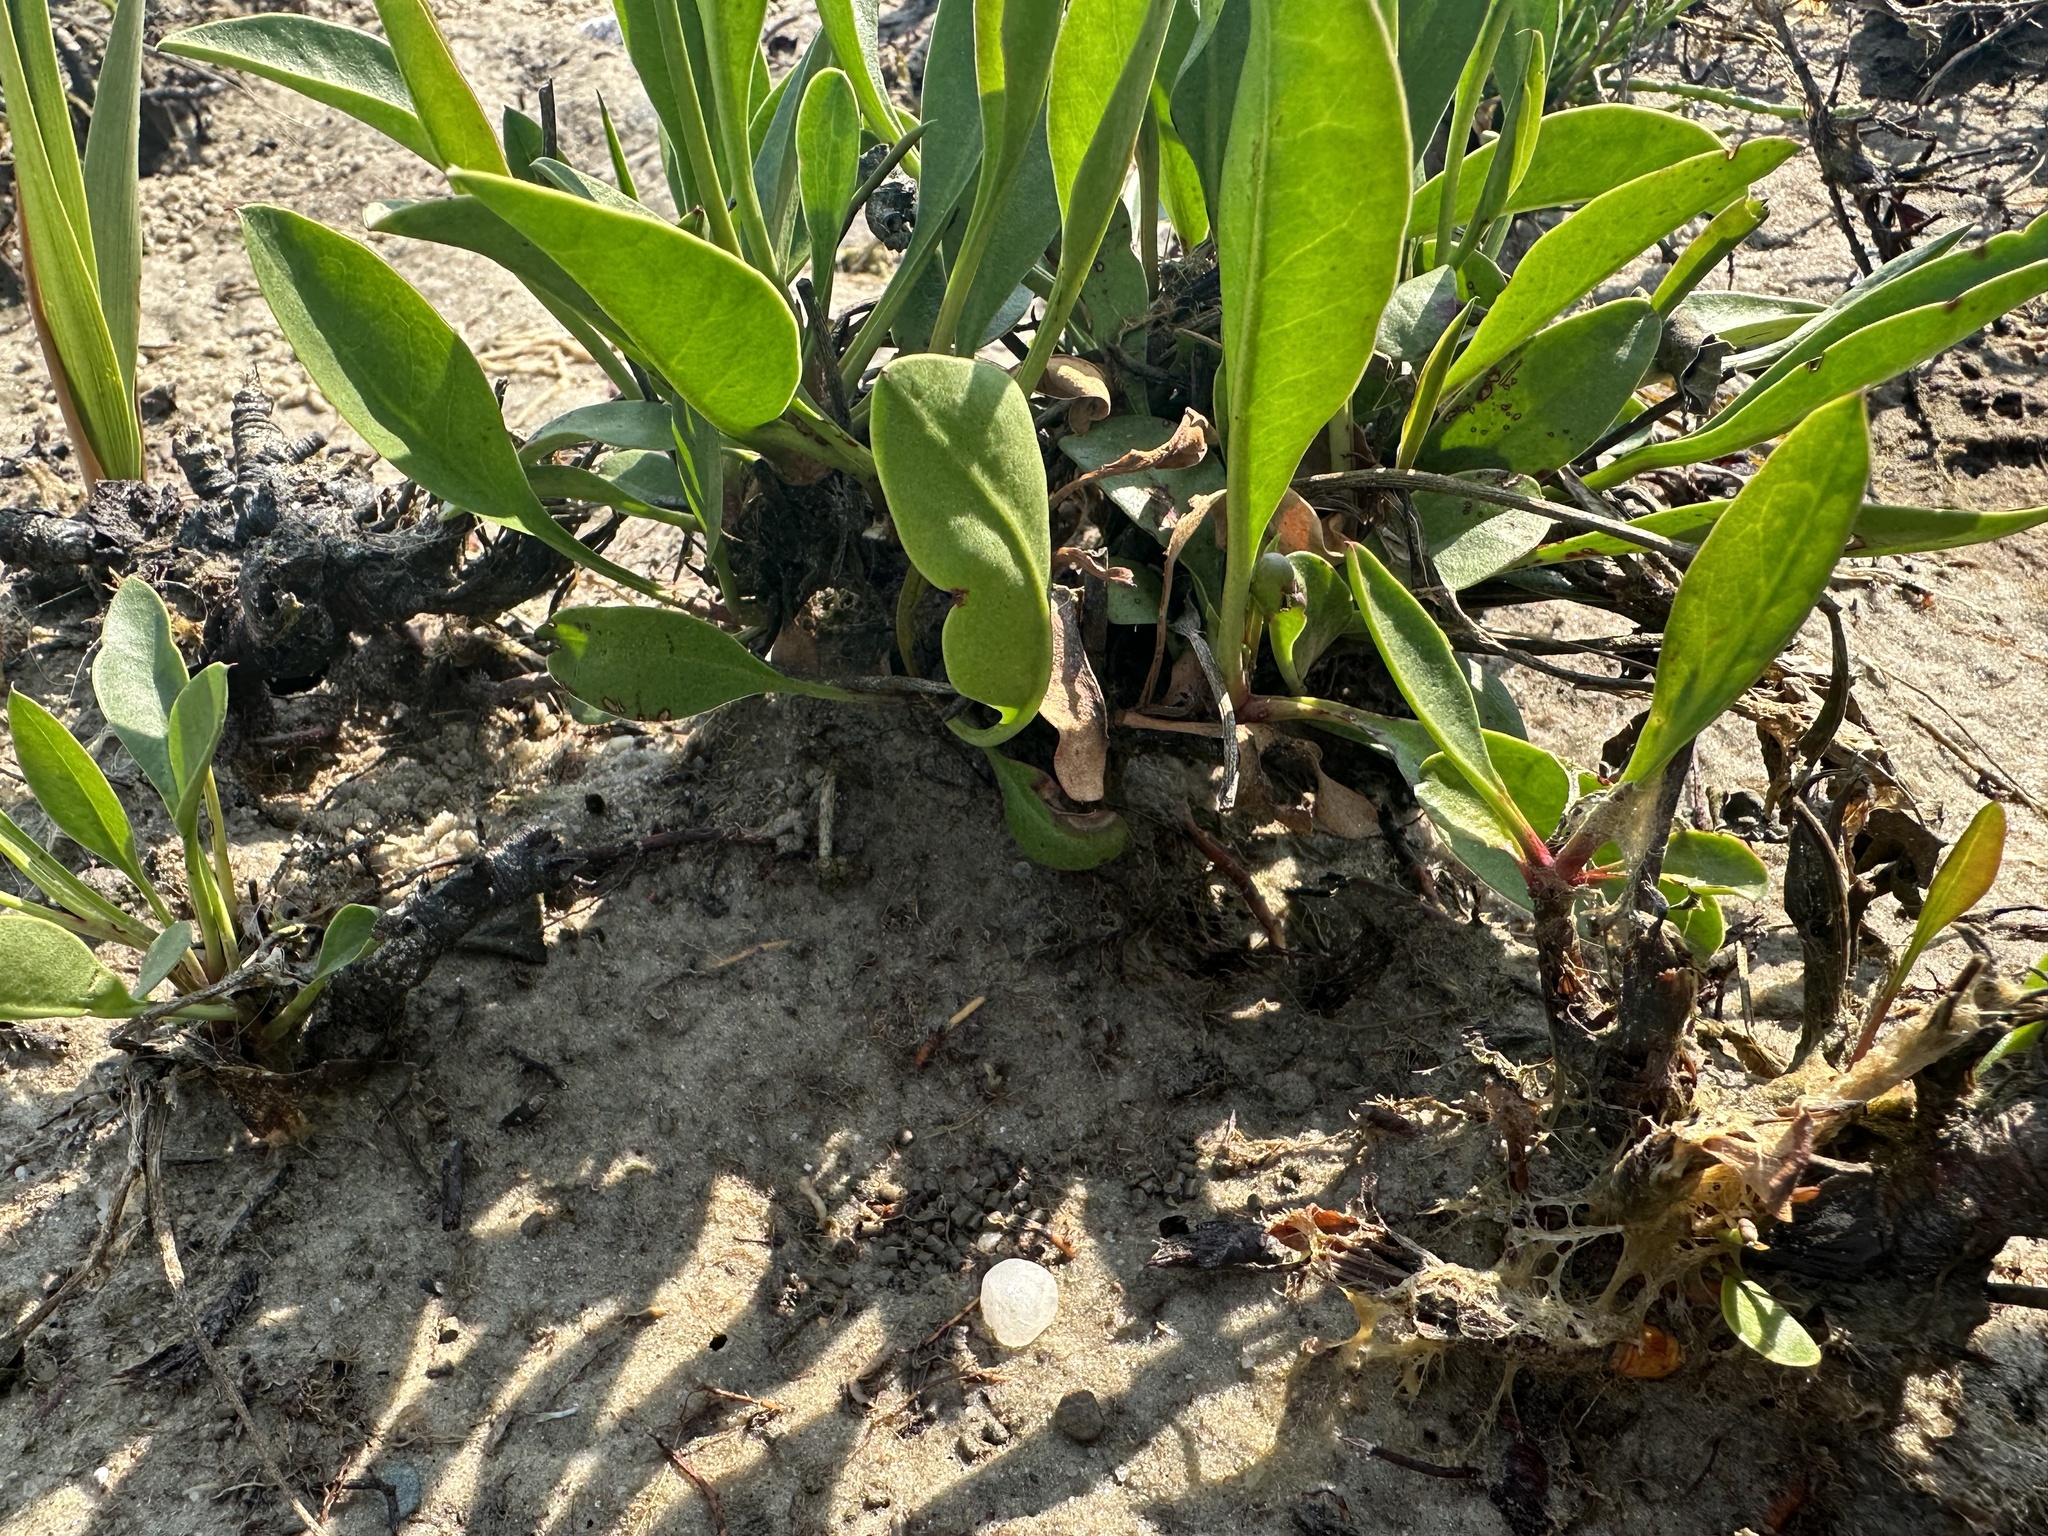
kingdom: Plantae
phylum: Tracheophyta
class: Magnoliopsida
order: Caryophyllales
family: Plumbaginaceae
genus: Limonium
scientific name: Limonium carolinianum
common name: Carolina sea lavender
